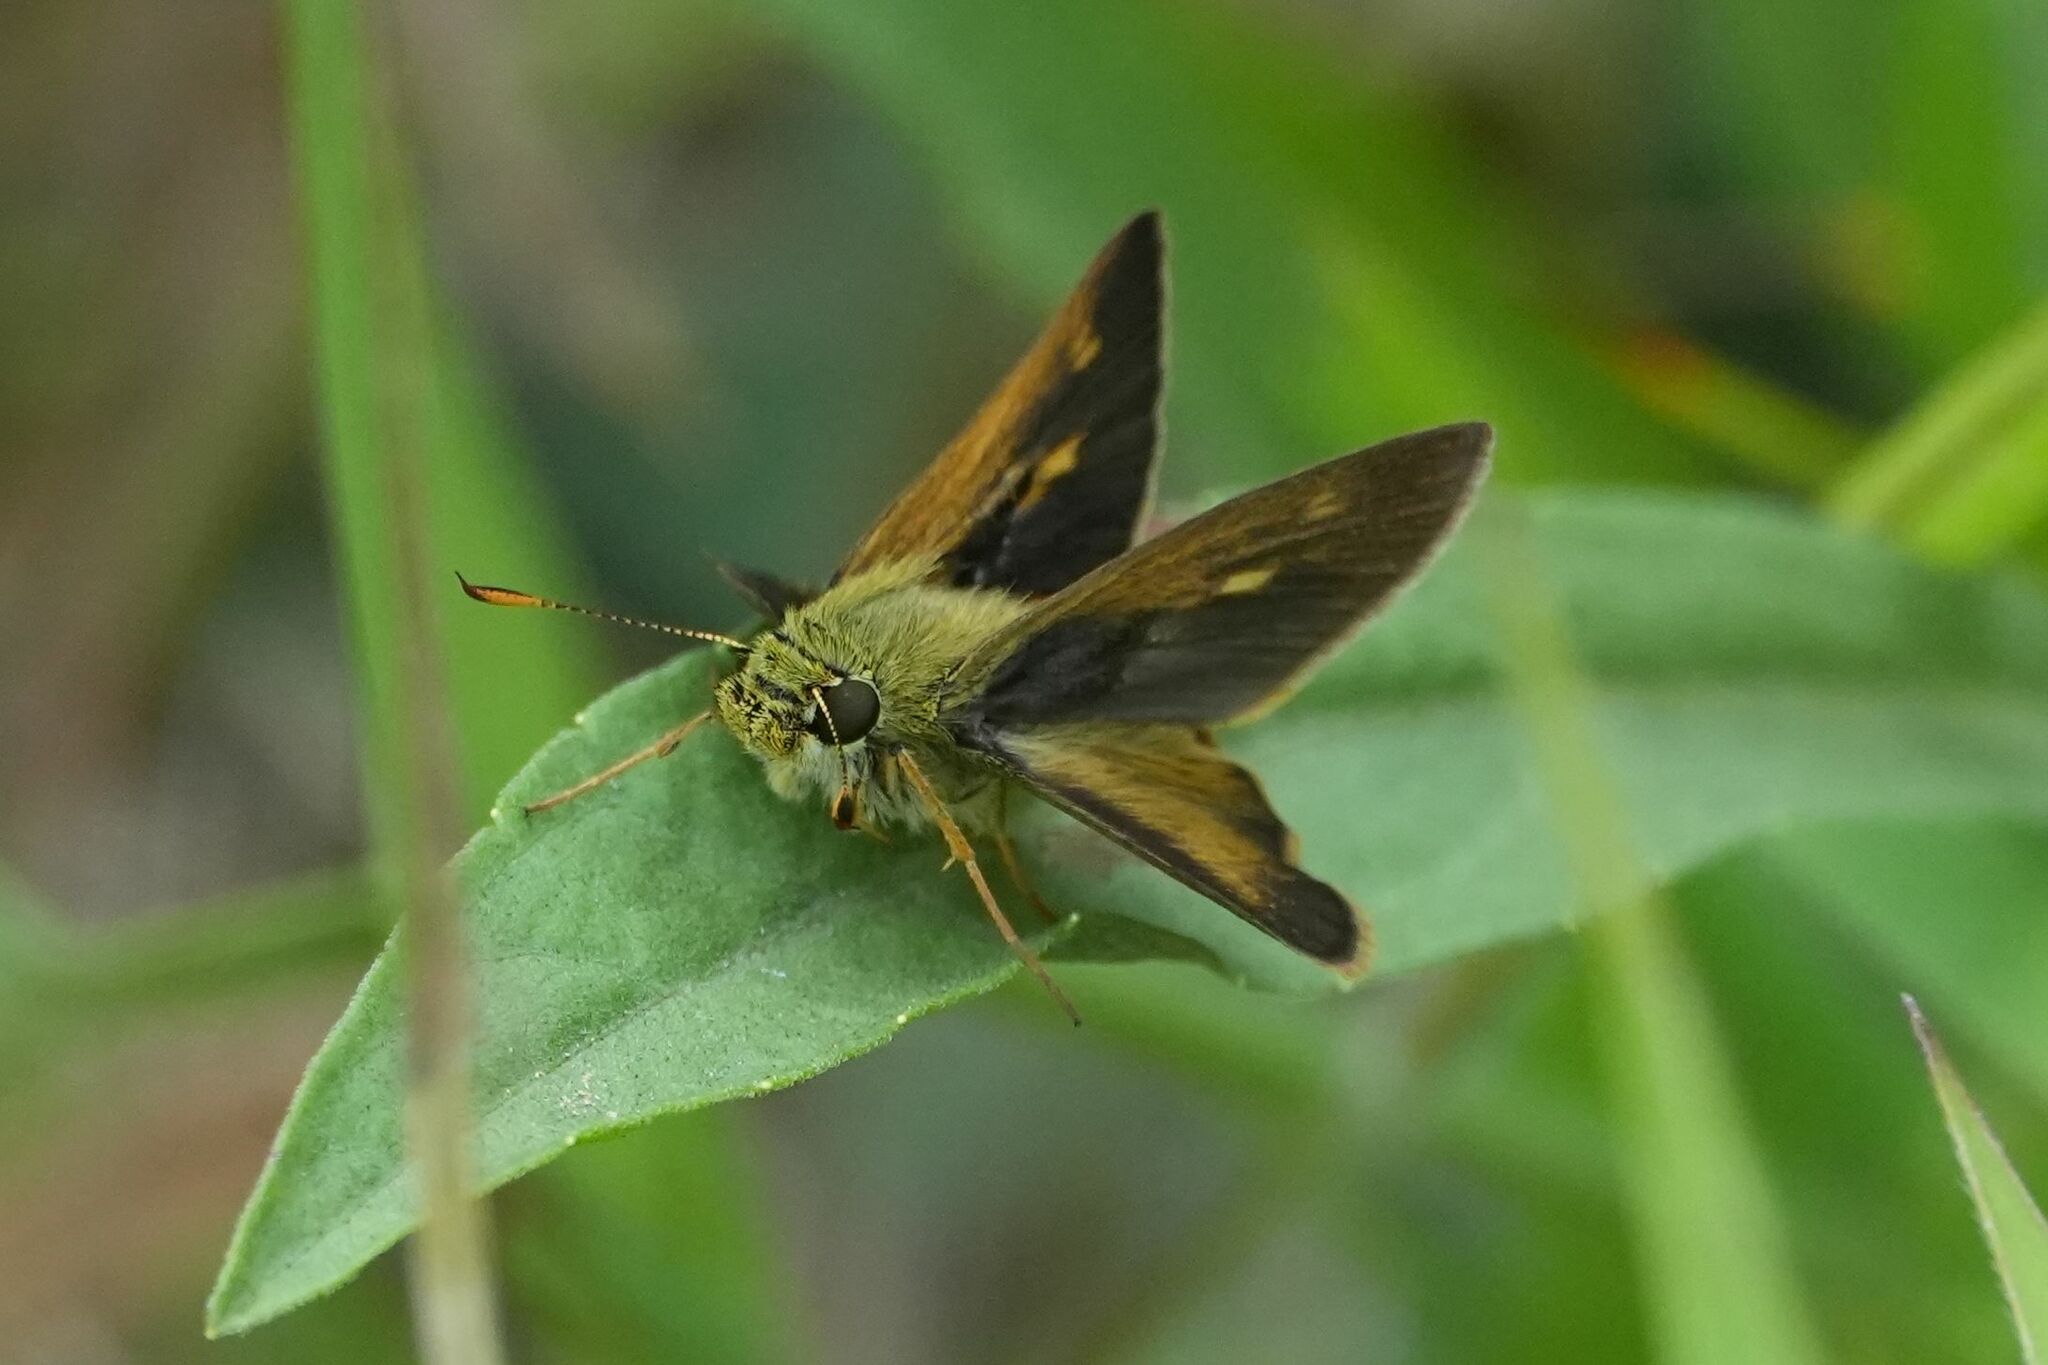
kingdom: Animalia
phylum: Arthropoda
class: Insecta
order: Lepidoptera
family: Hesperiidae
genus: Polites
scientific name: Polites egeremet
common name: Northern broken-dash
